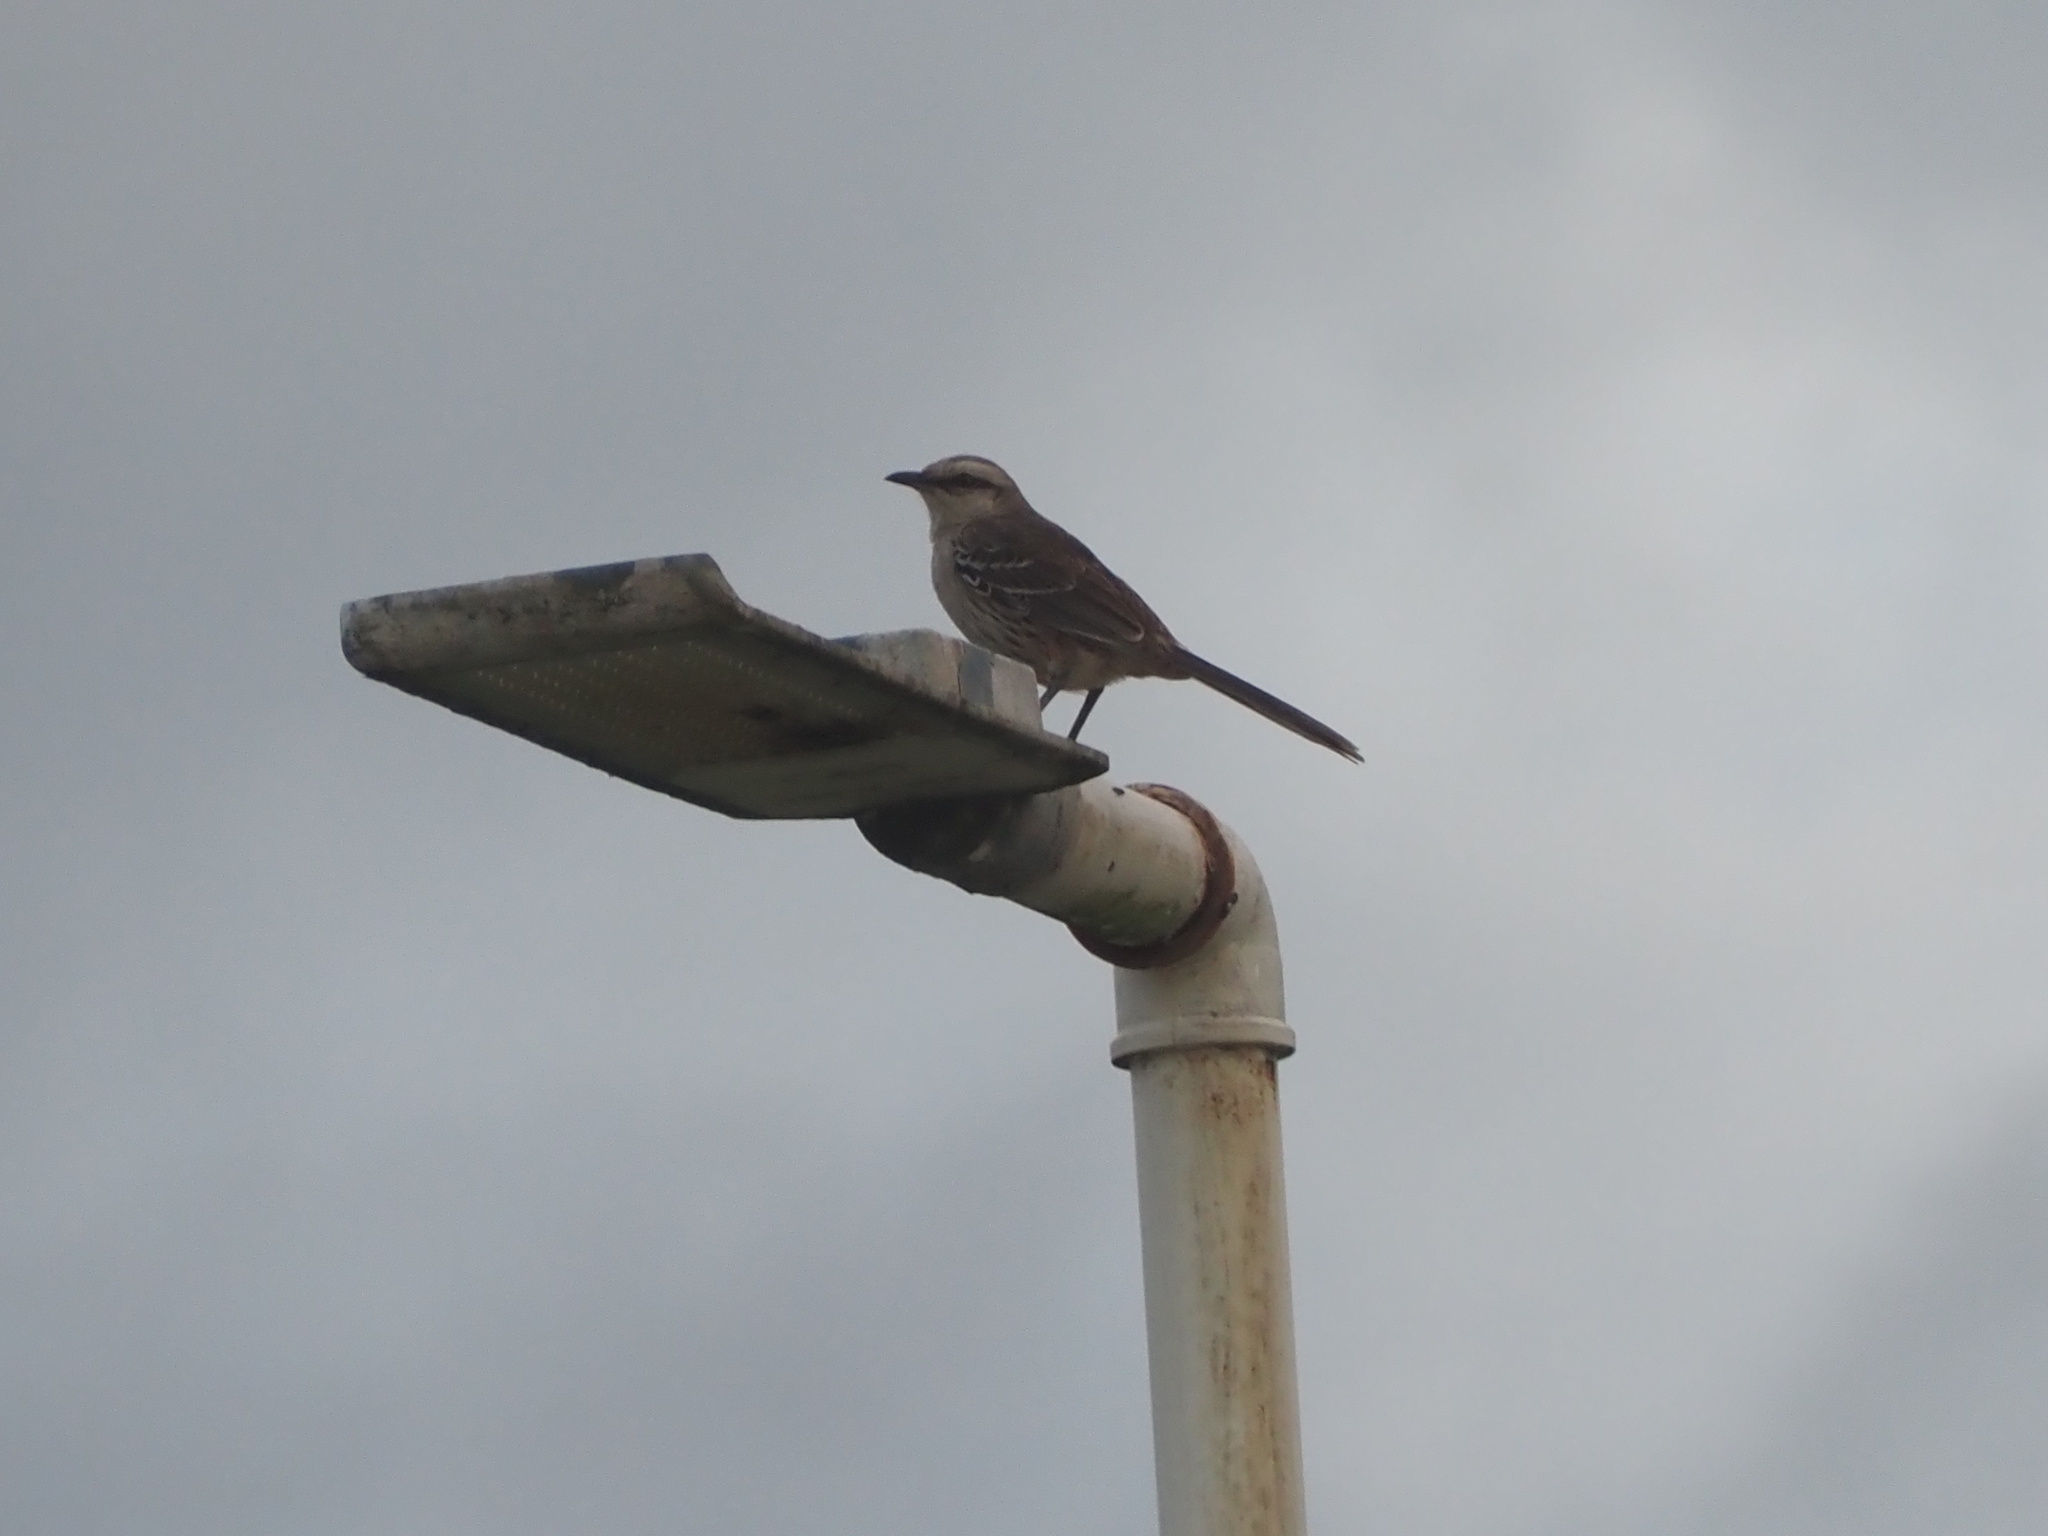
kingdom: Animalia
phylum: Chordata
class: Aves
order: Passeriformes
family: Mimidae
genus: Mimus
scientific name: Mimus saturninus
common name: Chalk-browed mockingbird
